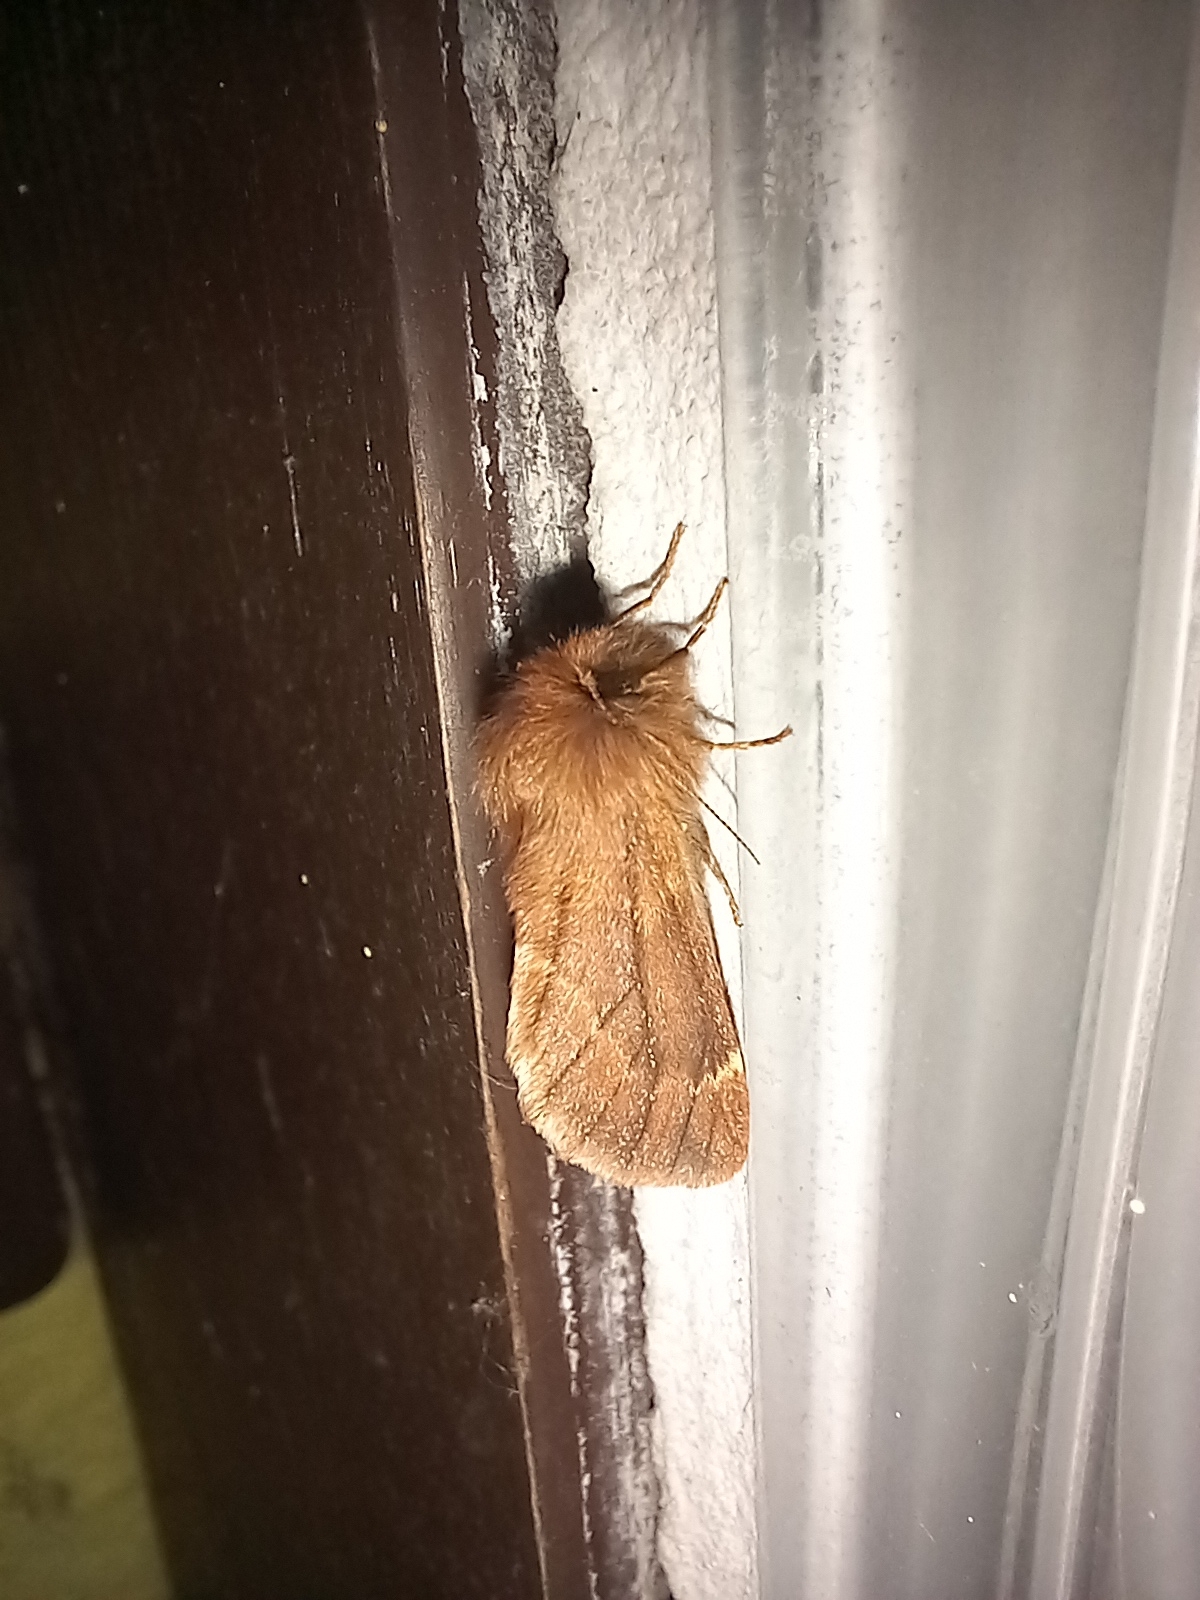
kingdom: Animalia
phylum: Arthropoda
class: Insecta
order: Lepidoptera
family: Notodontidae
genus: Ptilophora
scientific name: Ptilophora plumigera
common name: Plumed prominent
